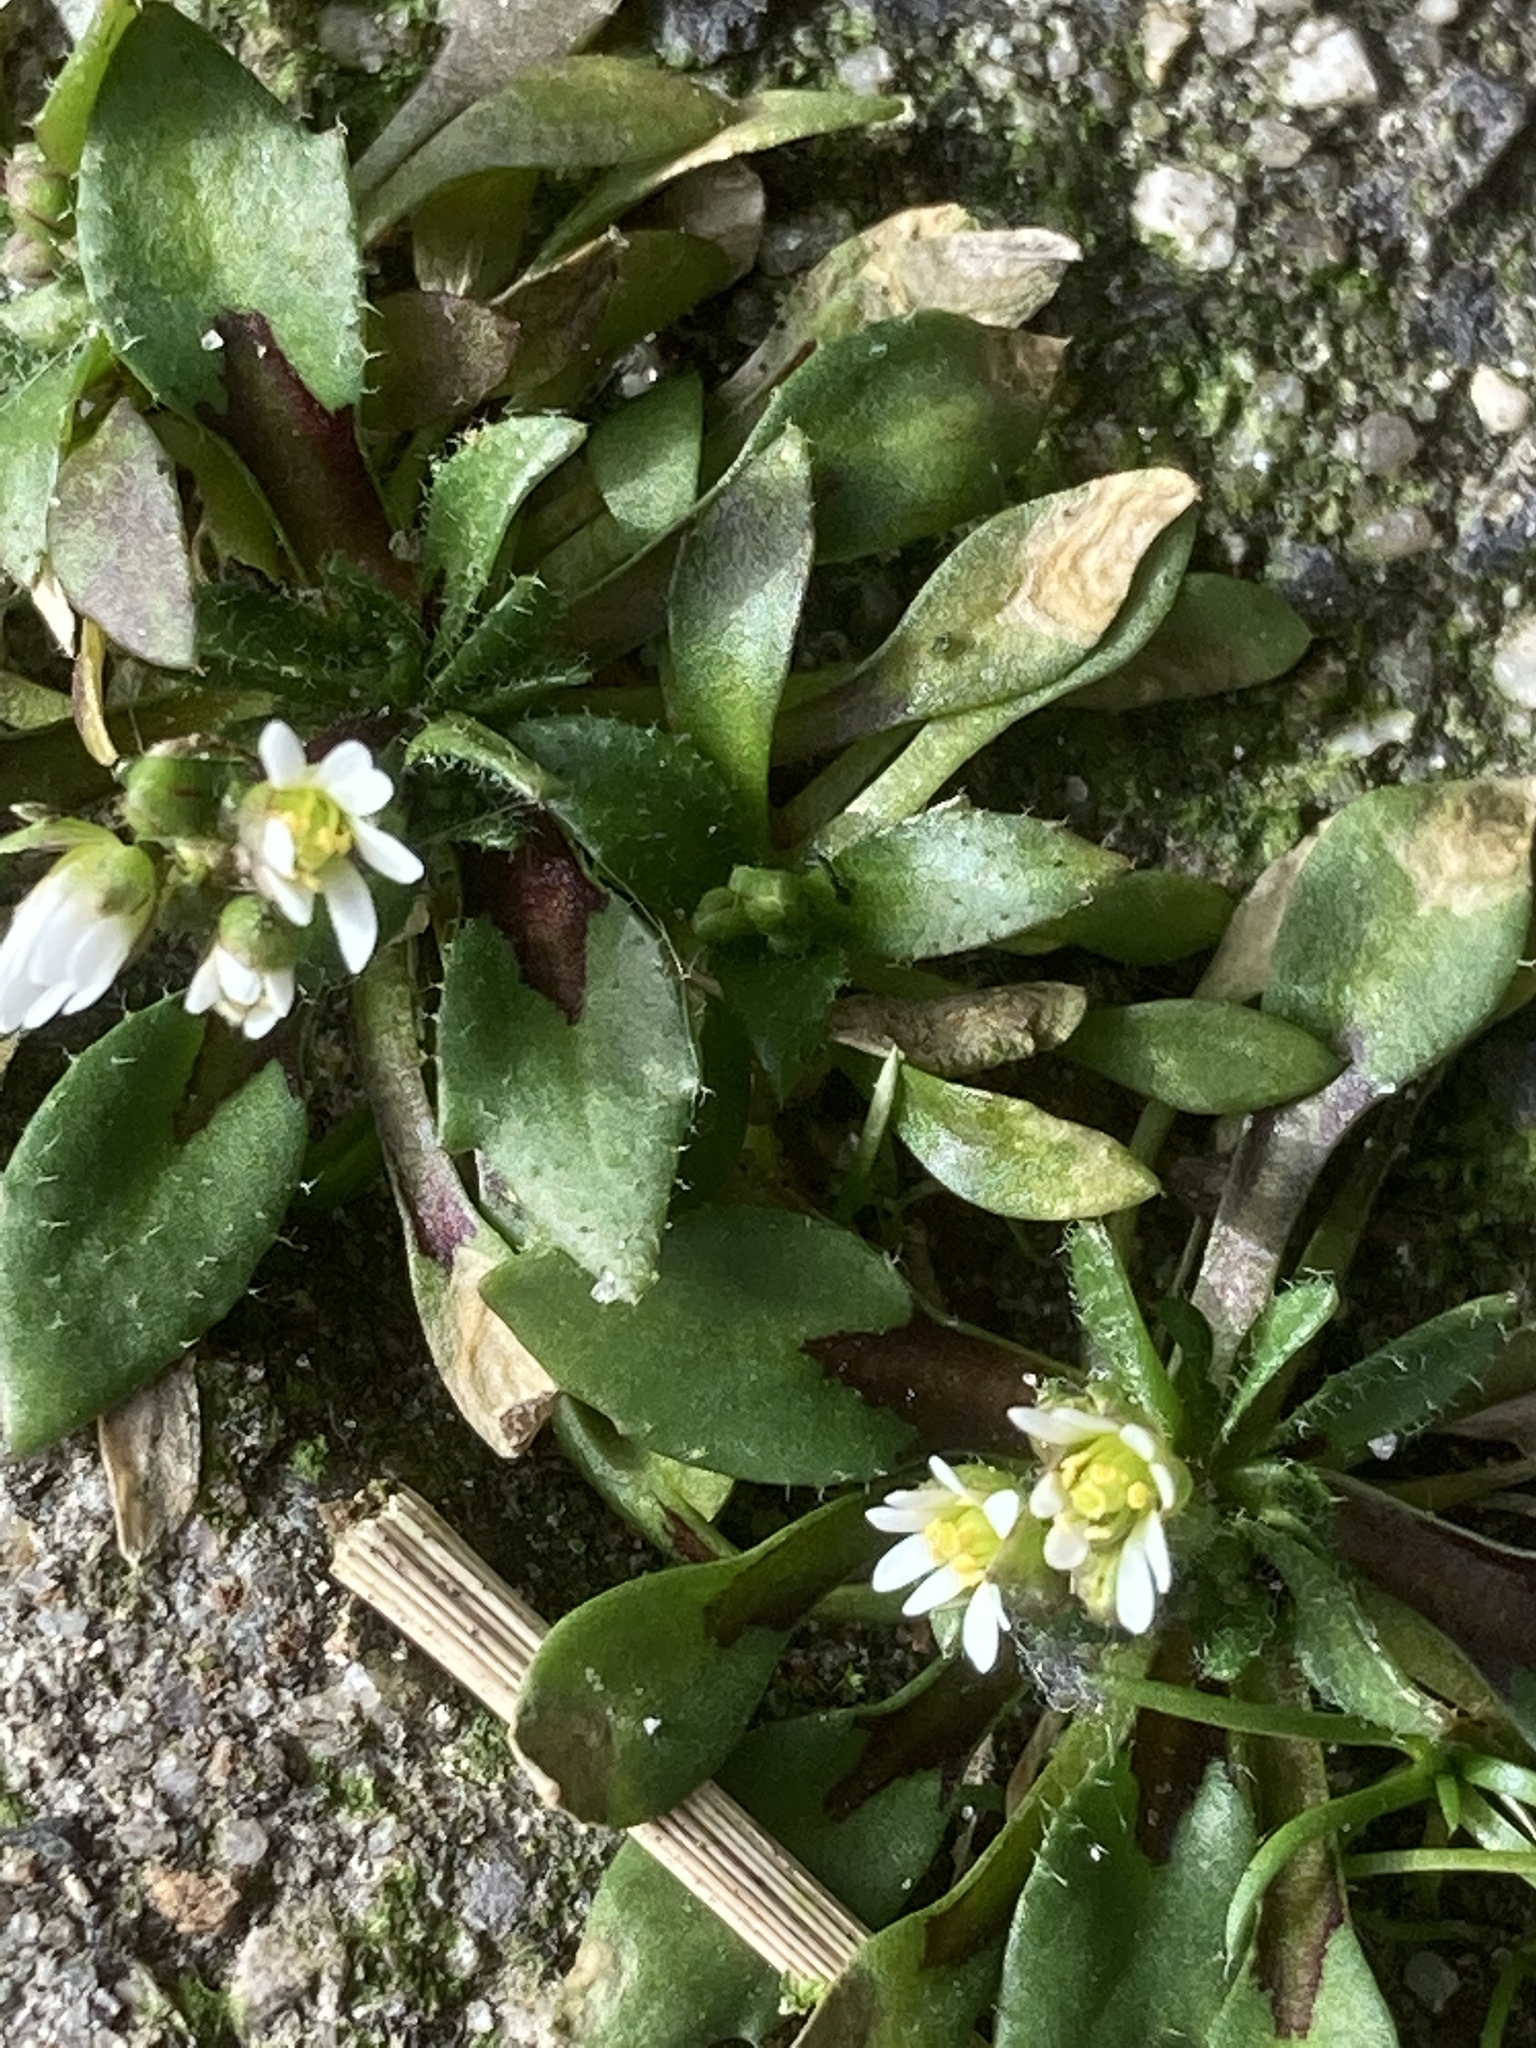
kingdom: Plantae
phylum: Tracheophyta
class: Magnoliopsida
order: Brassicales
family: Brassicaceae
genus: Draba
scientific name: Draba verna
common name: Spring draba
